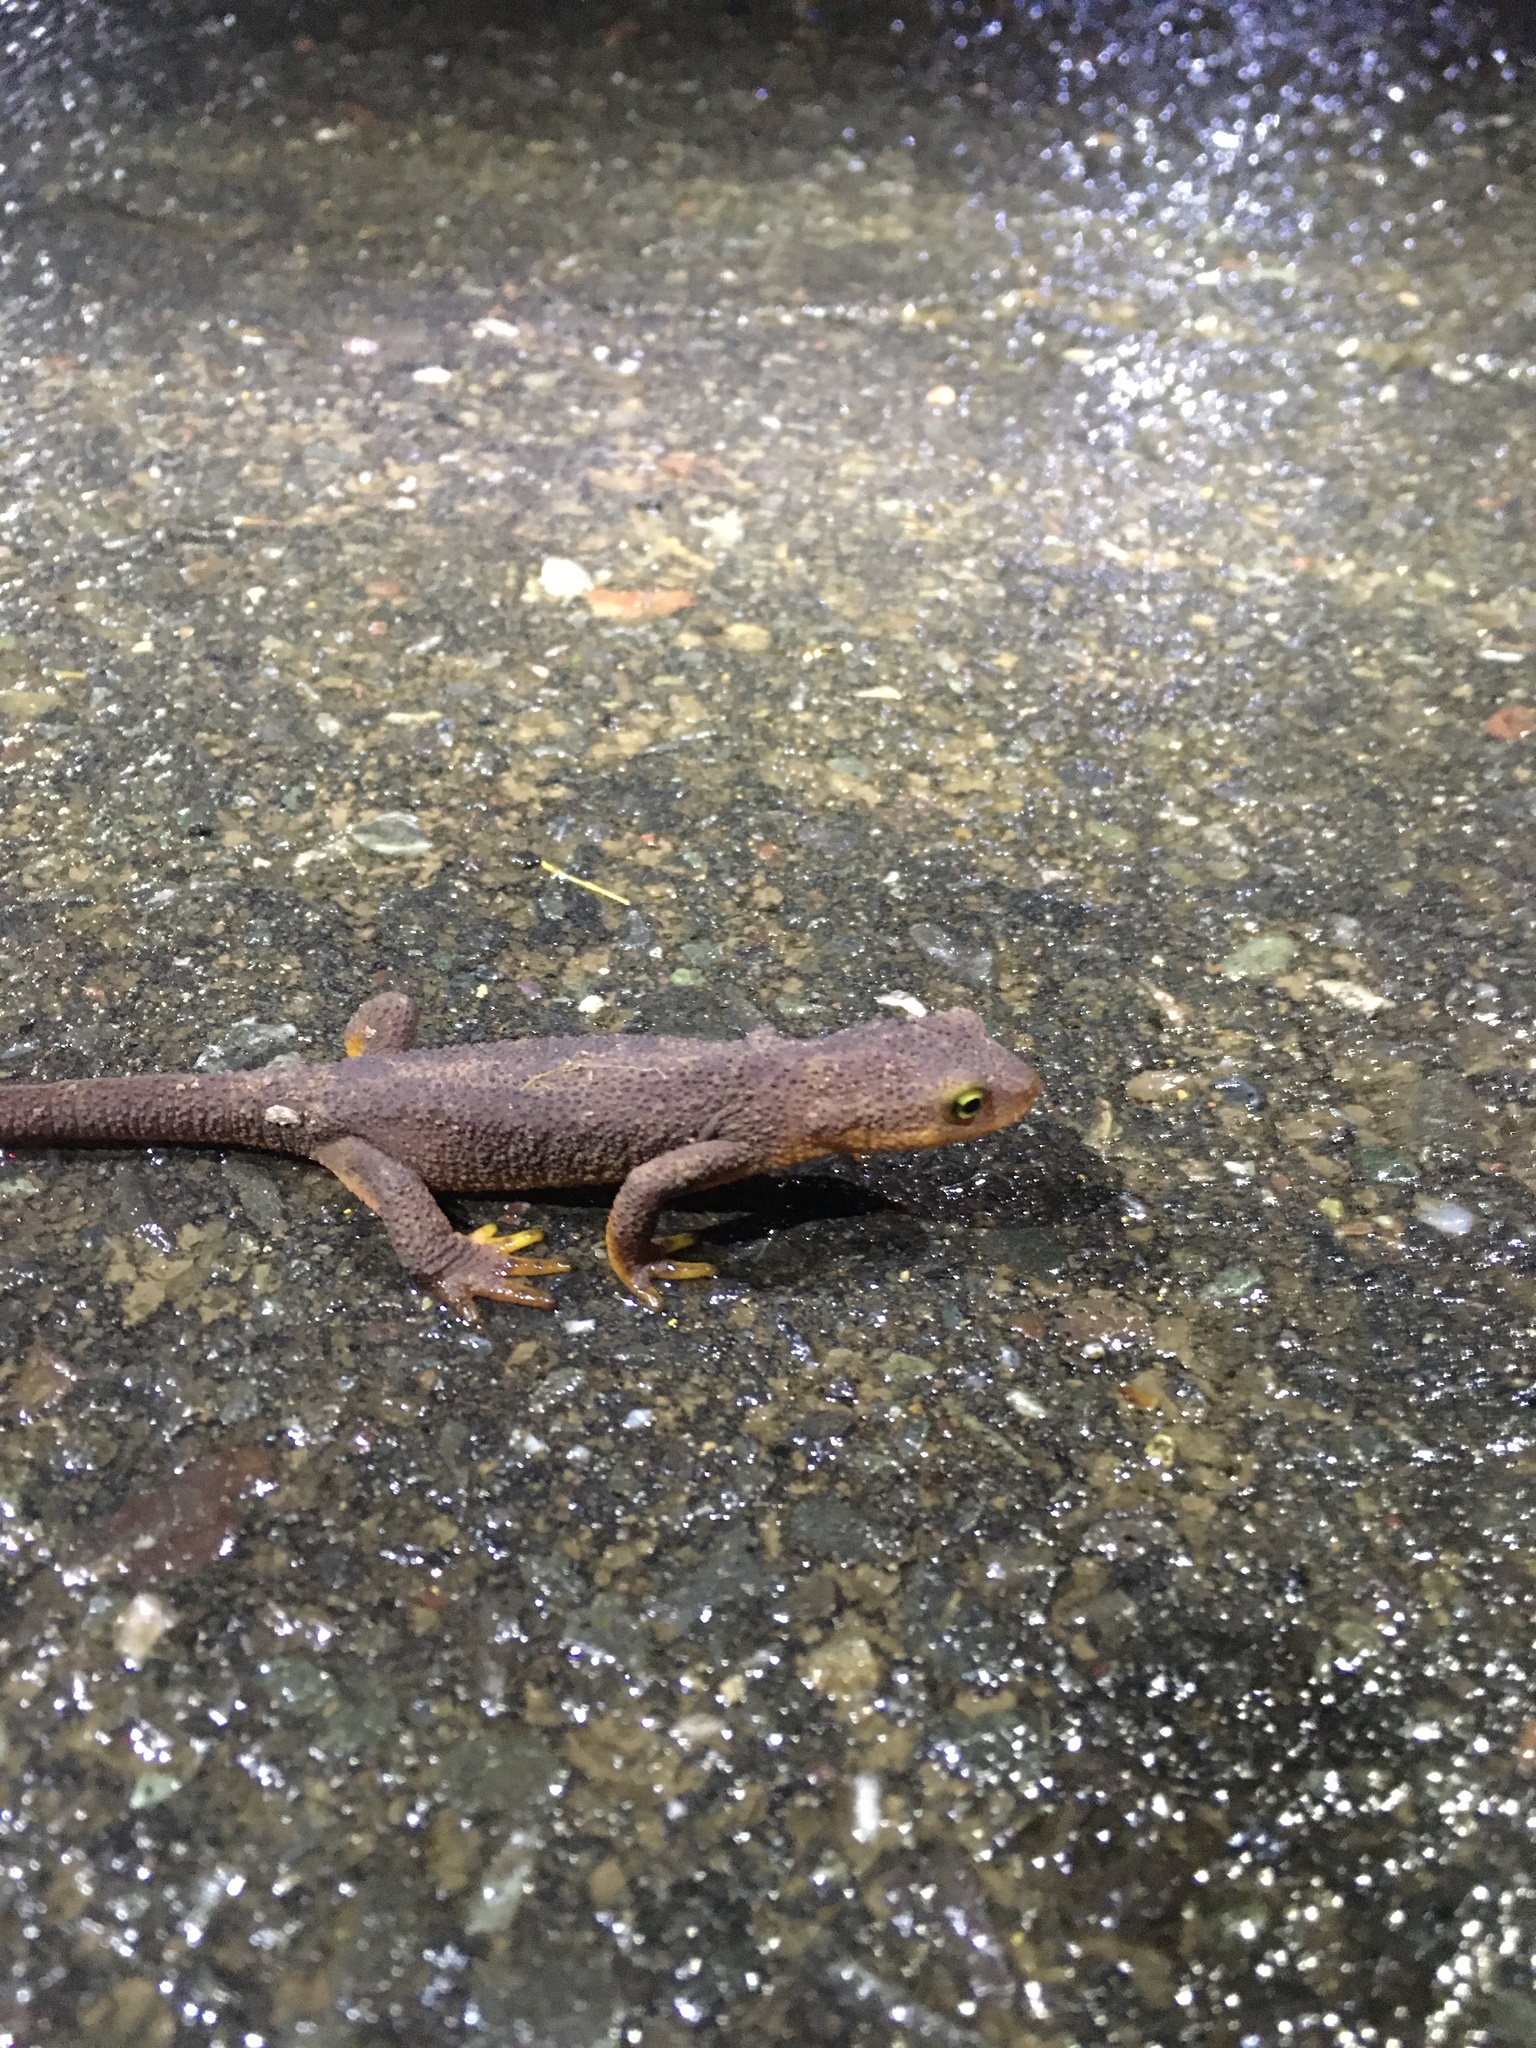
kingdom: Animalia
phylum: Chordata
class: Amphibia
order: Caudata
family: Salamandridae
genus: Taricha
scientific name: Taricha torosa
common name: California newt
